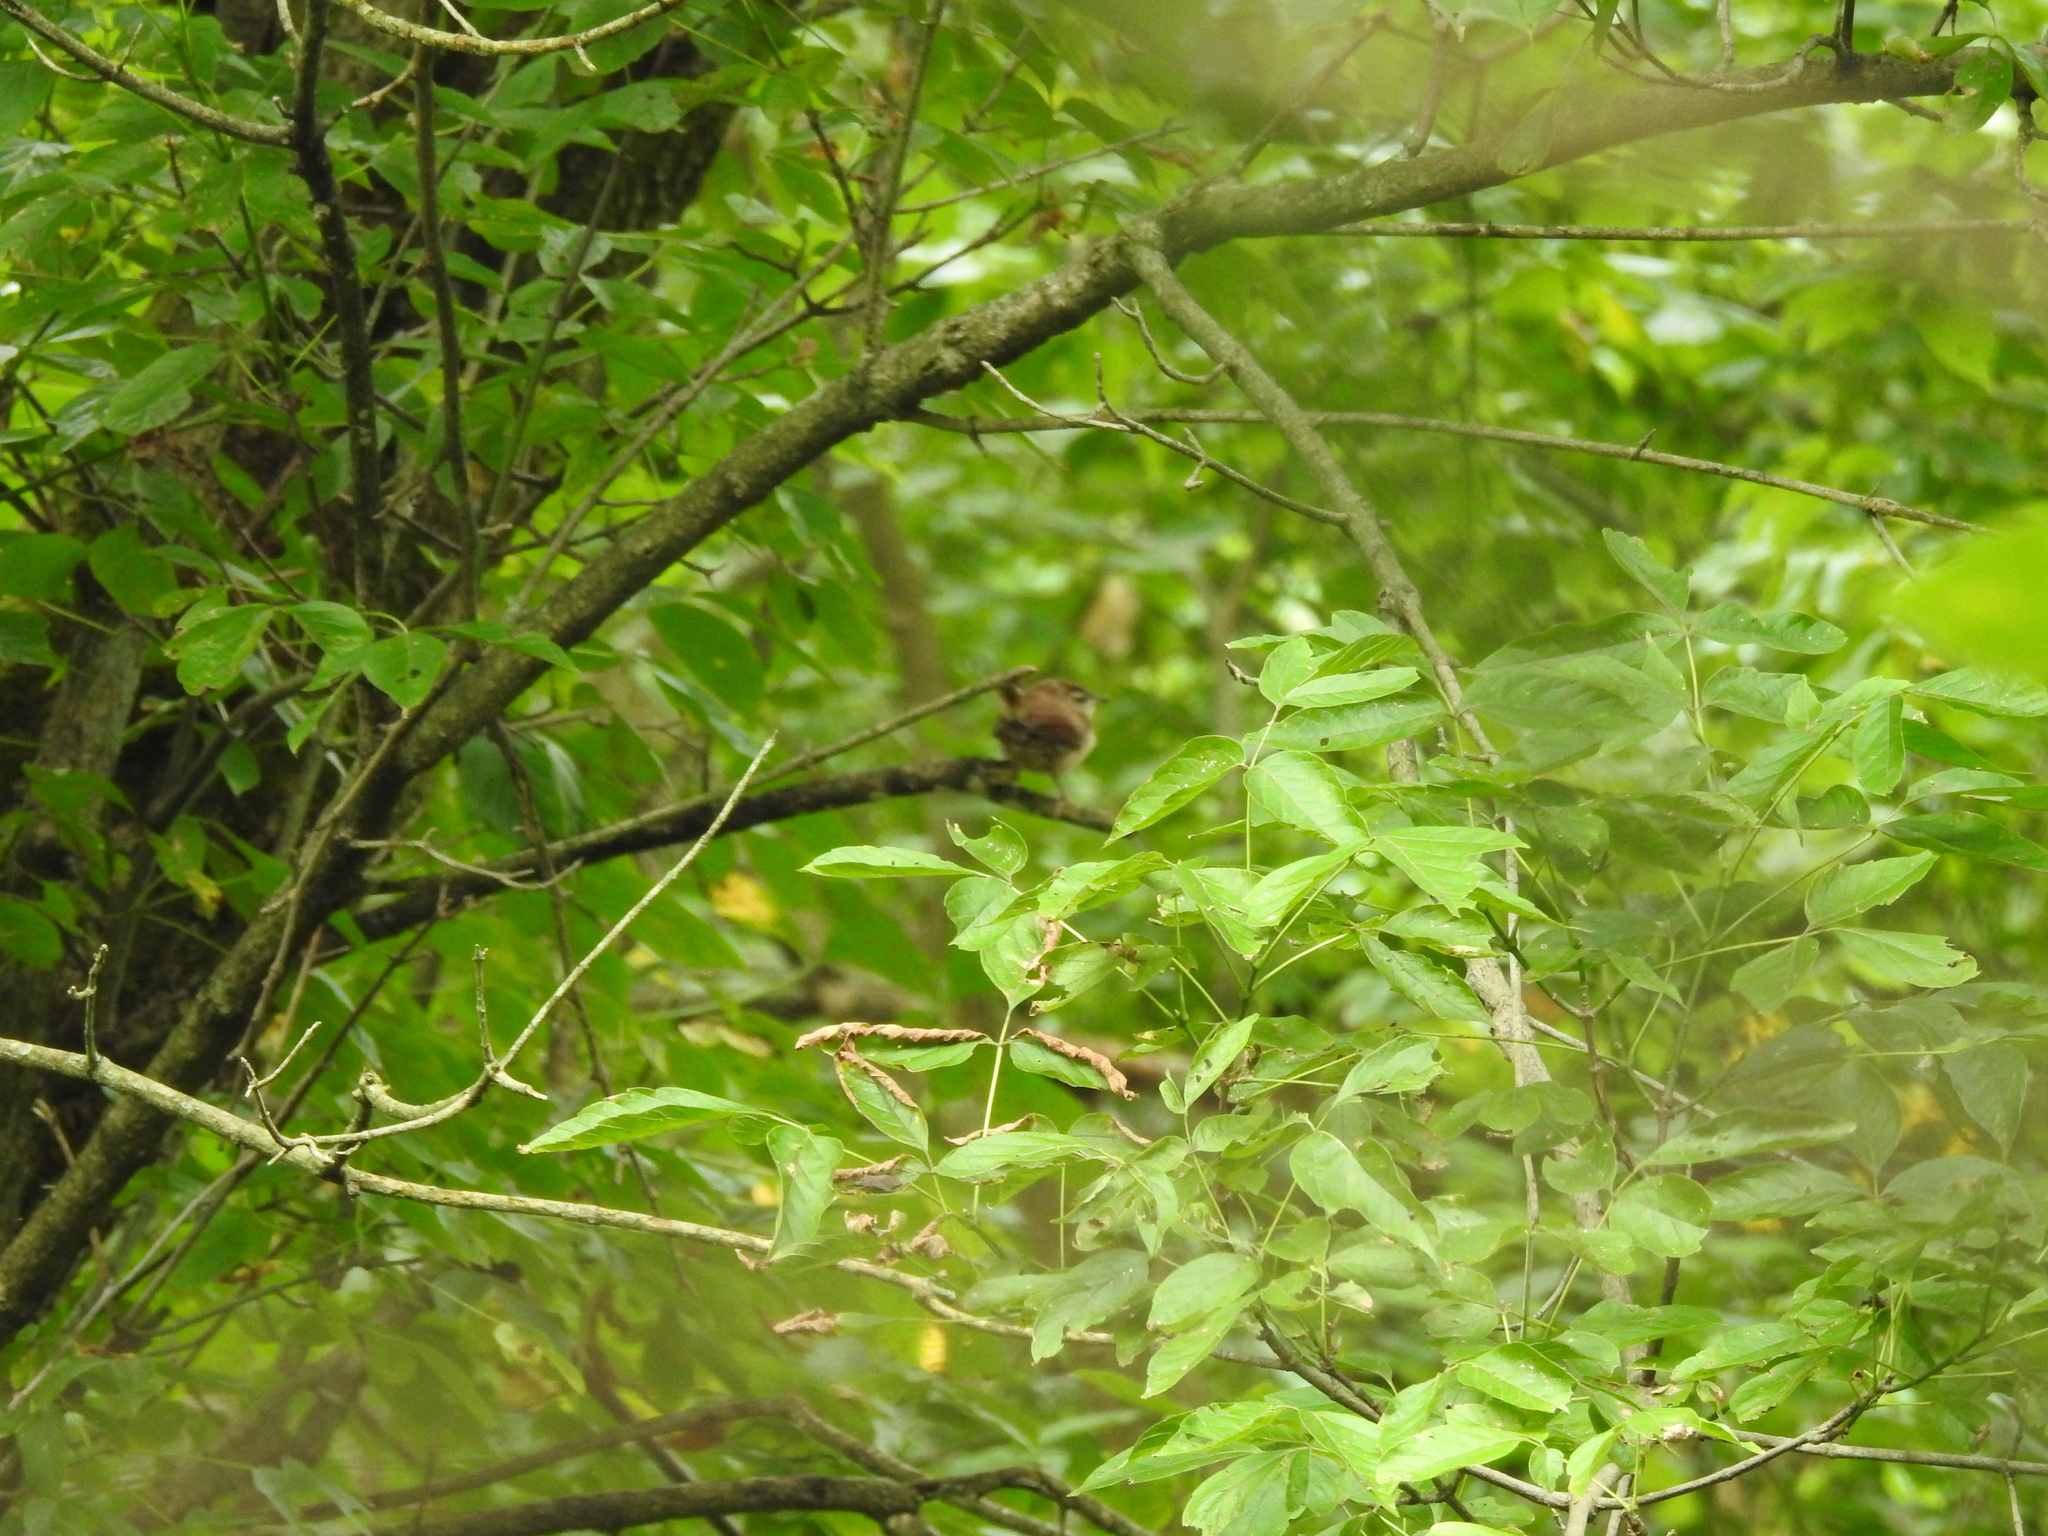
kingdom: Animalia
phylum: Chordata
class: Aves
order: Passeriformes
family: Troglodytidae
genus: Thryothorus
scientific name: Thryothorus ludovicianus
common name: Carolina wren
